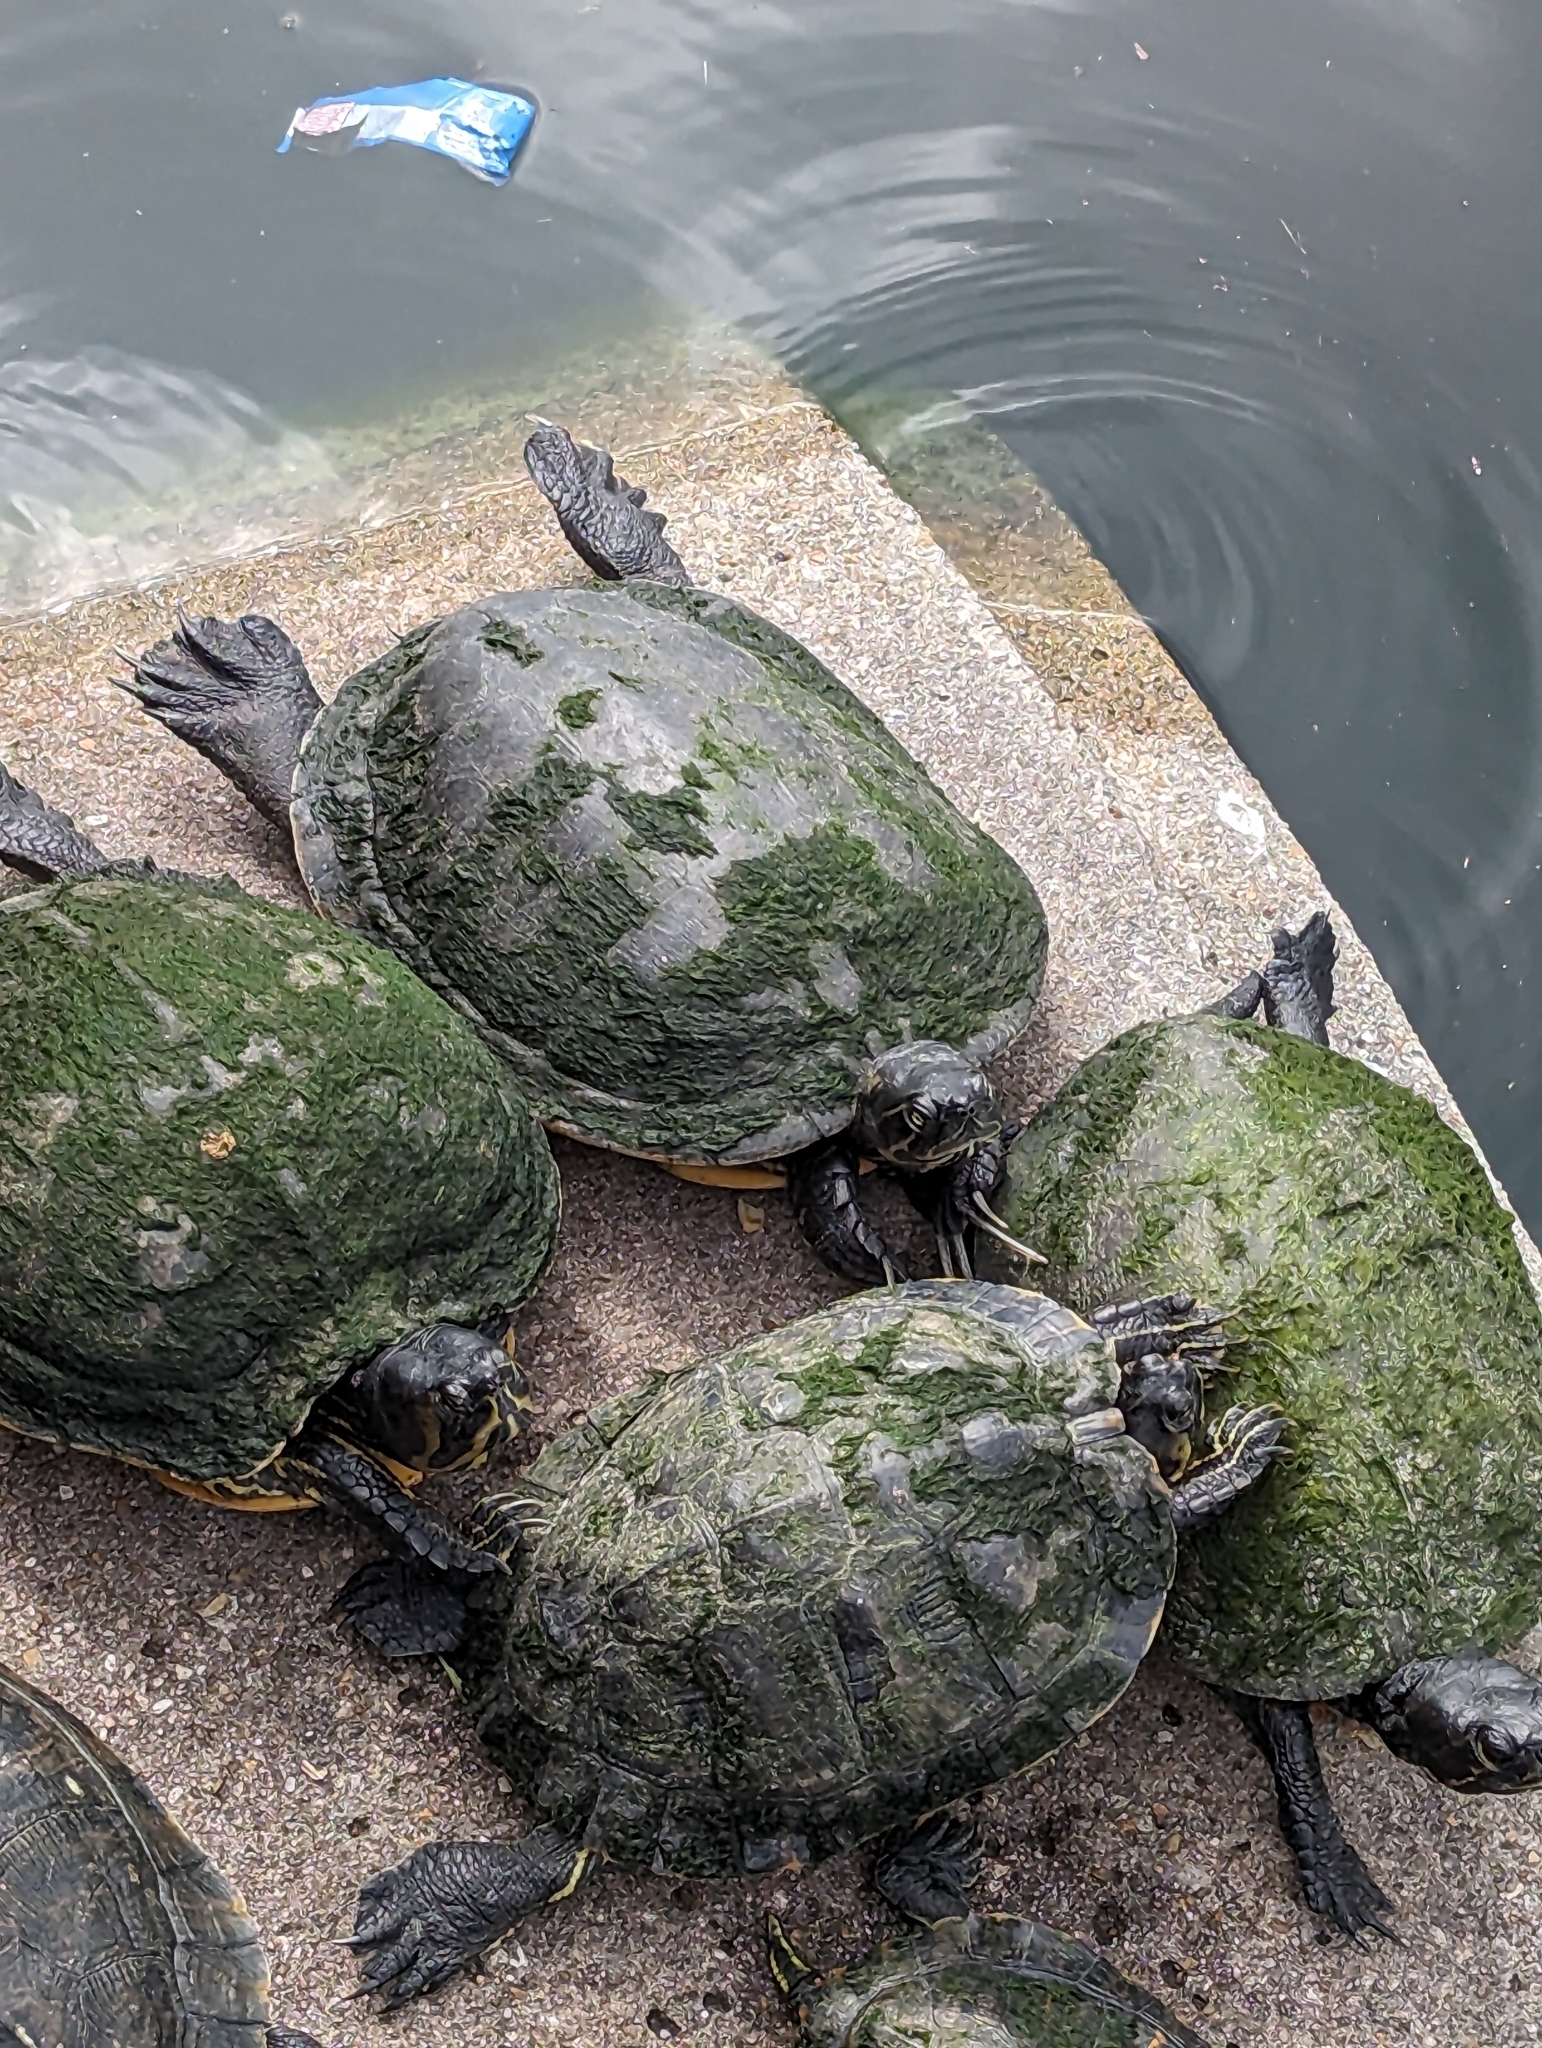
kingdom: Animalia
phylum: Chordata
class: Testudines
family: Emydidae
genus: Trachemys
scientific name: Trachemys scripta
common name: Slider
